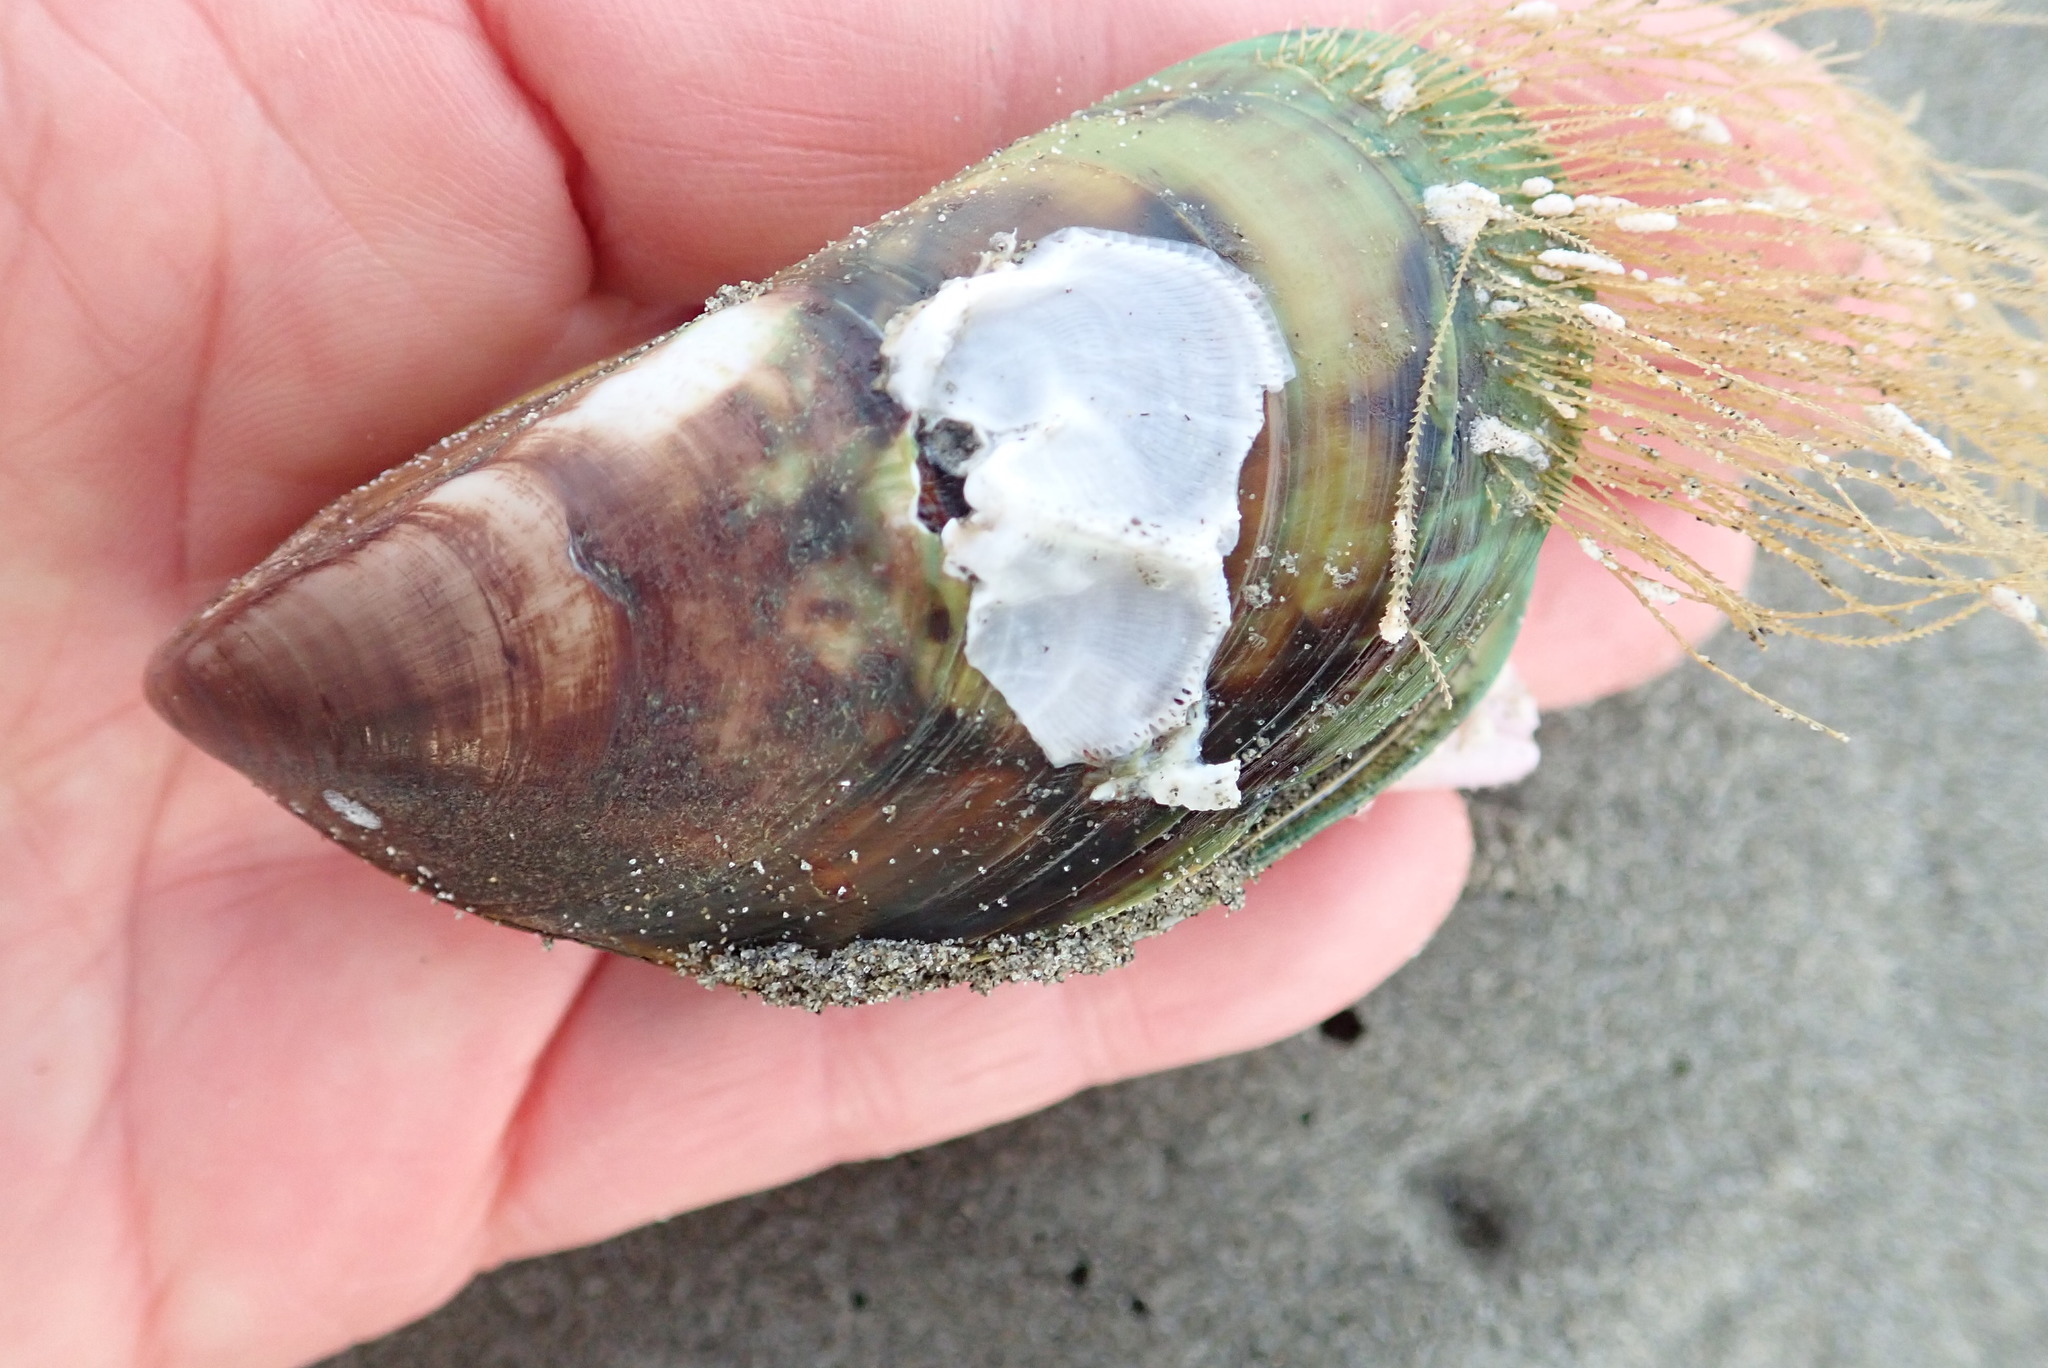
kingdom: Animalia
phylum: Mollusca
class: Bivalvia
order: Mytilida
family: Mytilidae
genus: Perna
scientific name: Perna canaliculus
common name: New zealand greenshelltm
